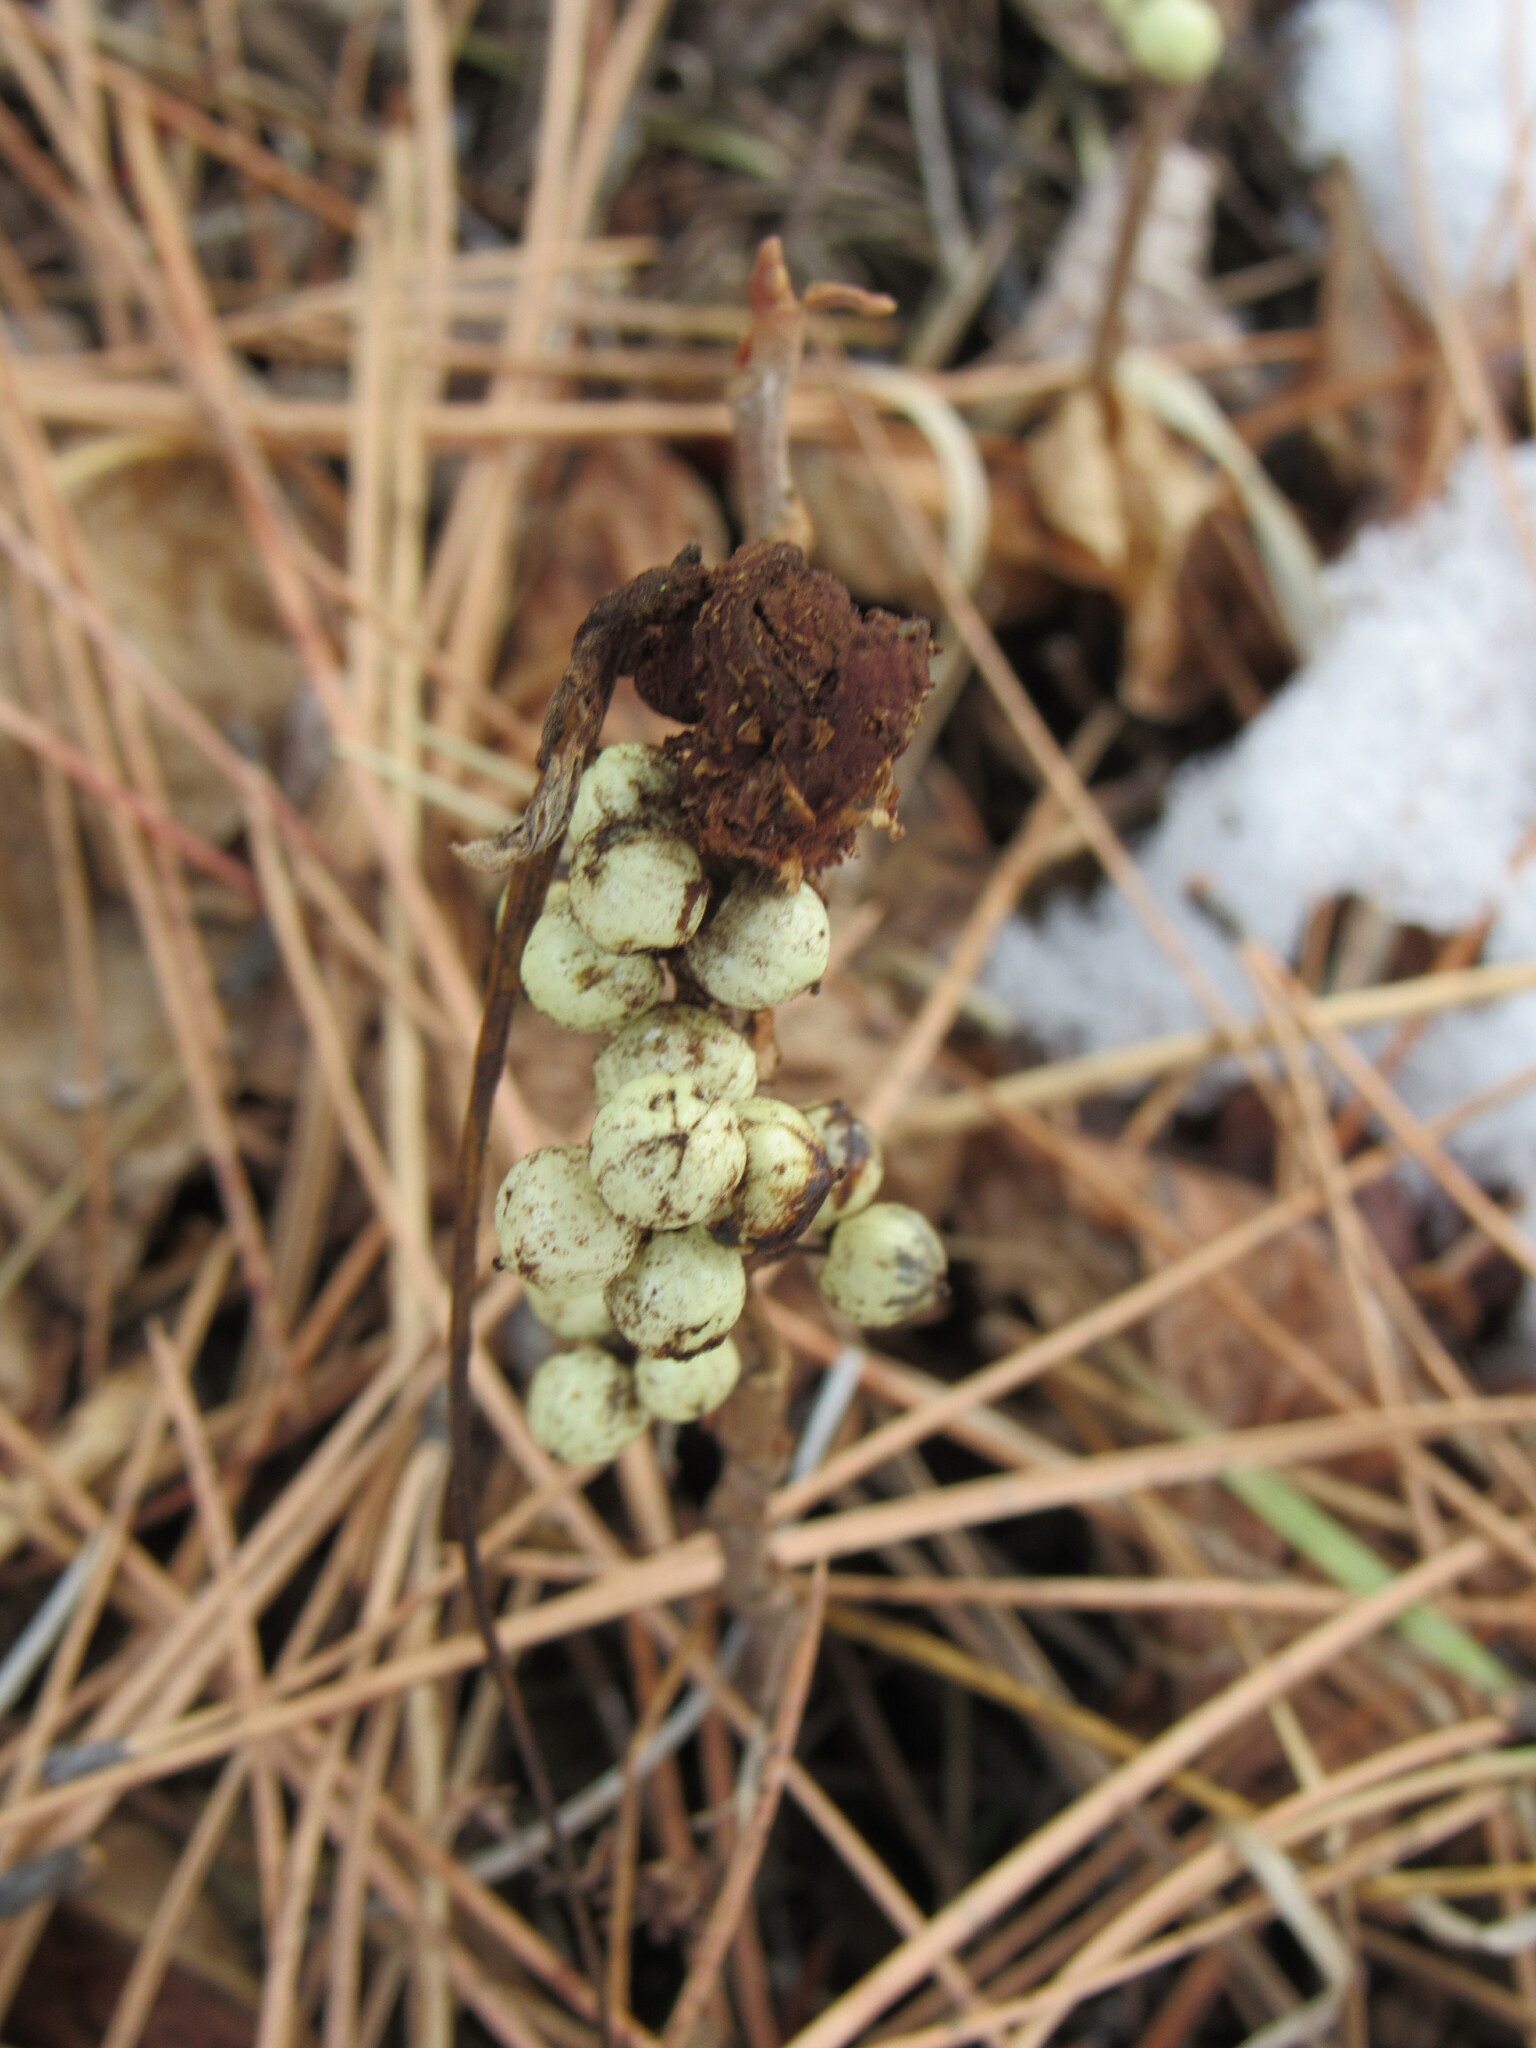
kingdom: Plantae
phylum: Tracheophyta
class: Magnoliopsida
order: Sapindales
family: Anacardiaceae
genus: Toxicodendron
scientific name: Toxicodendron rydbergii
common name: Rydberg's poison-ivy
